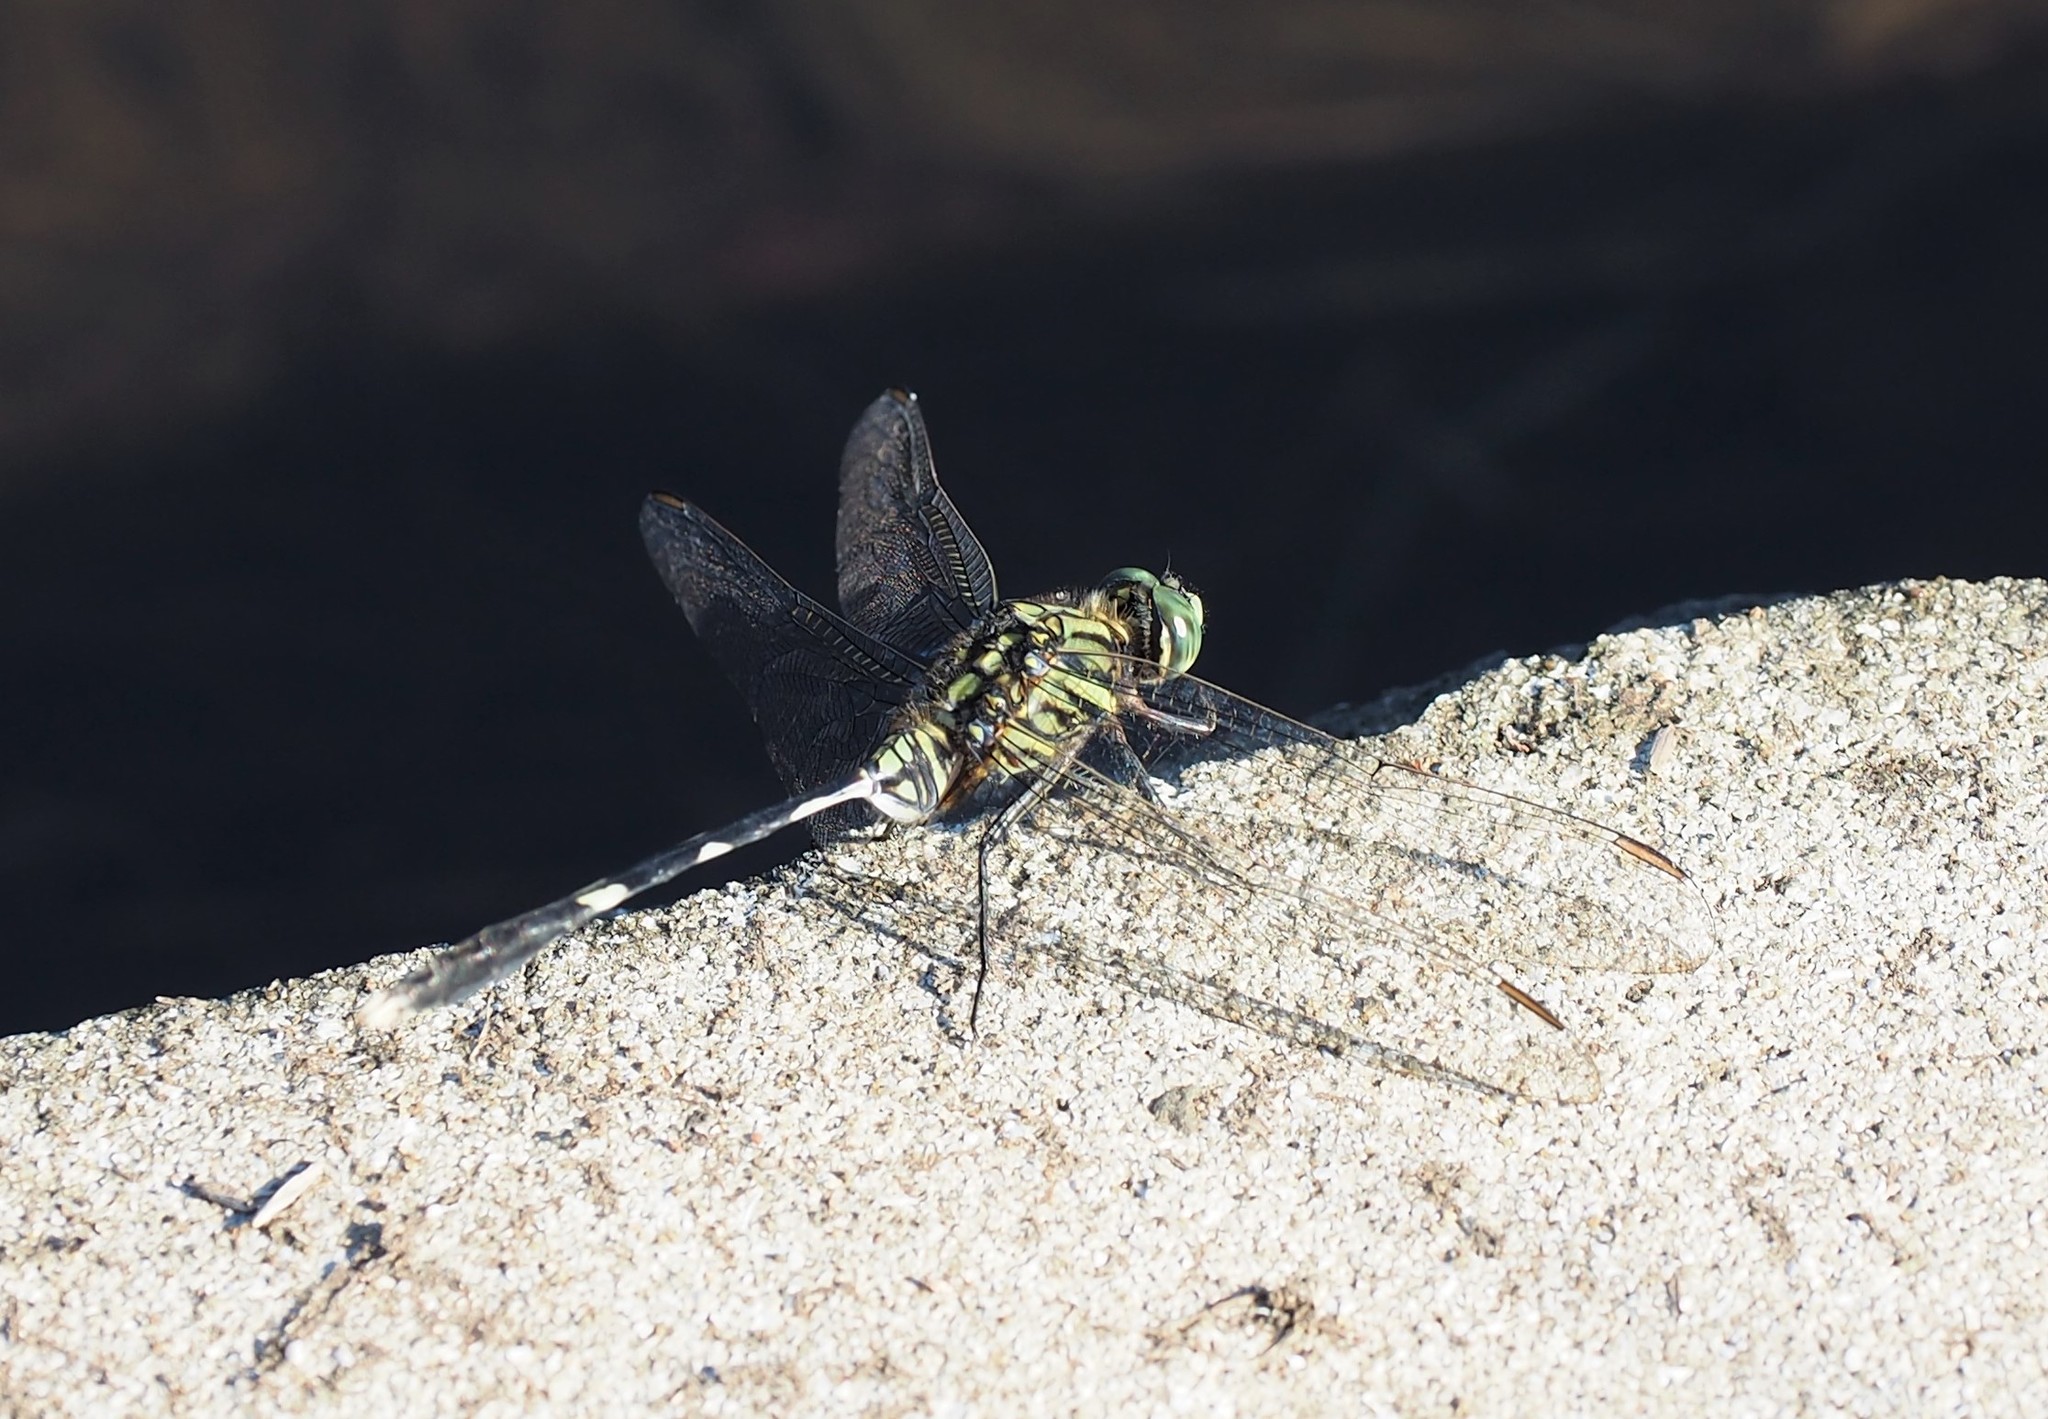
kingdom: Animalia
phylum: Arthropoda
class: Insecta
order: Odonata
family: Libellulidae
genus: Orthetrum
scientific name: Orthetrum sabina
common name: Slender skimmer
